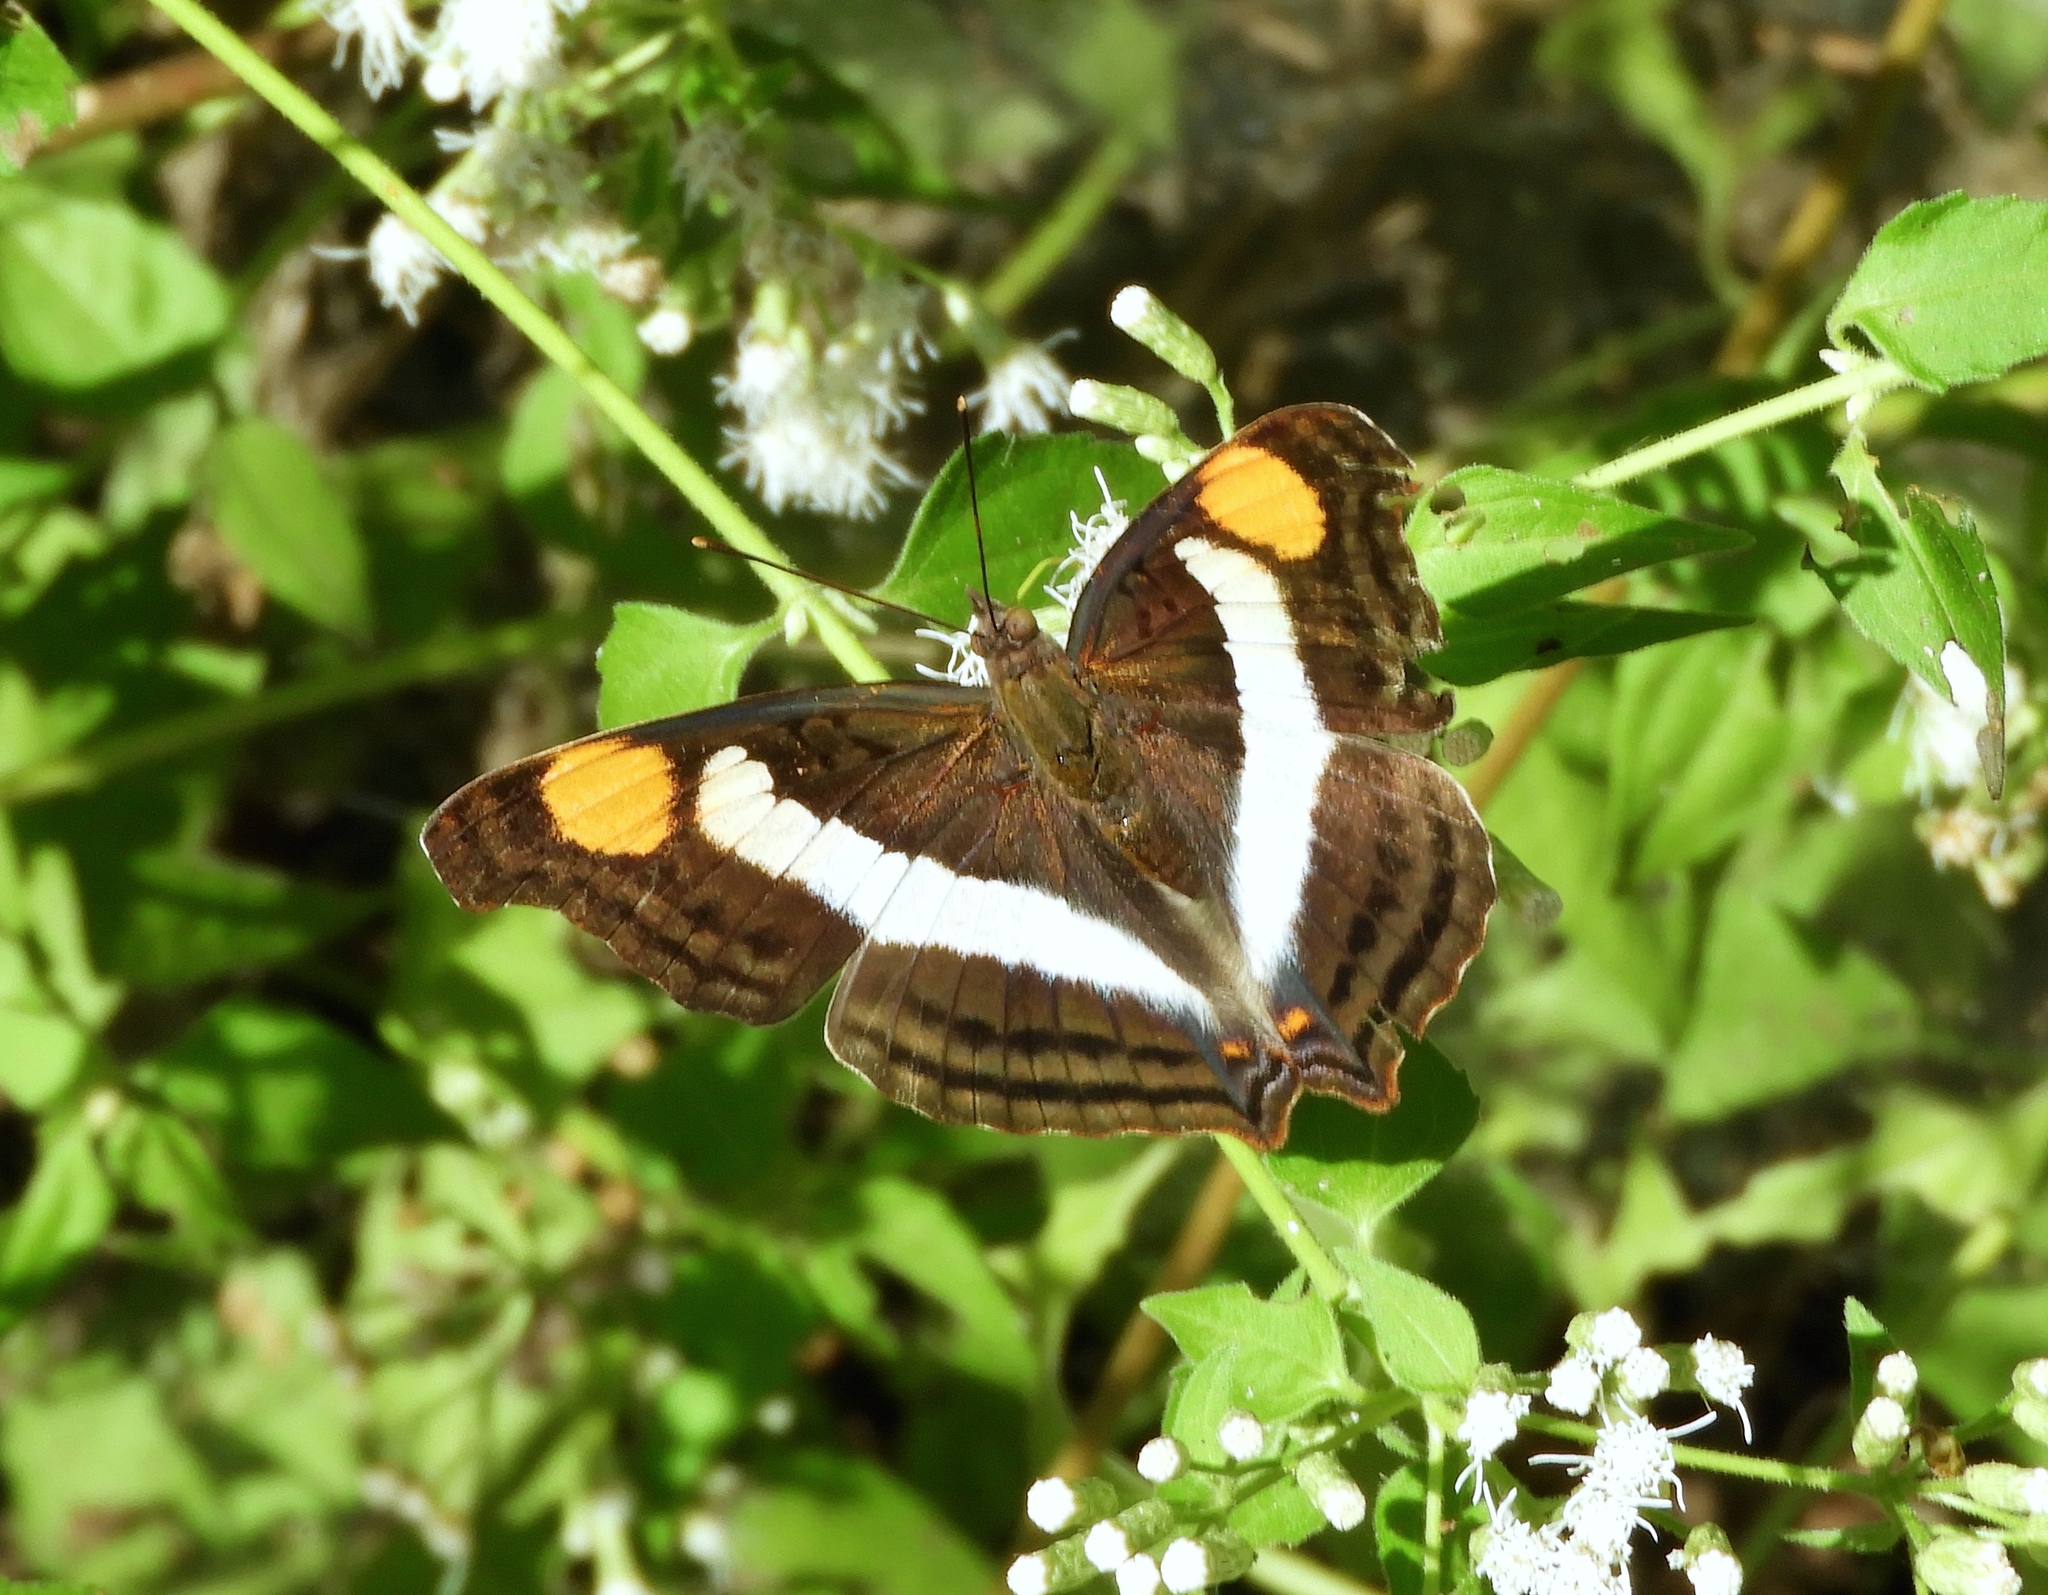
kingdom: Animalia
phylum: Arthropoda
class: Insecta
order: Lepidoptera
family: Nymphalidae
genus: Doxocopa
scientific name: Doxocopa laure
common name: Silver emperor
